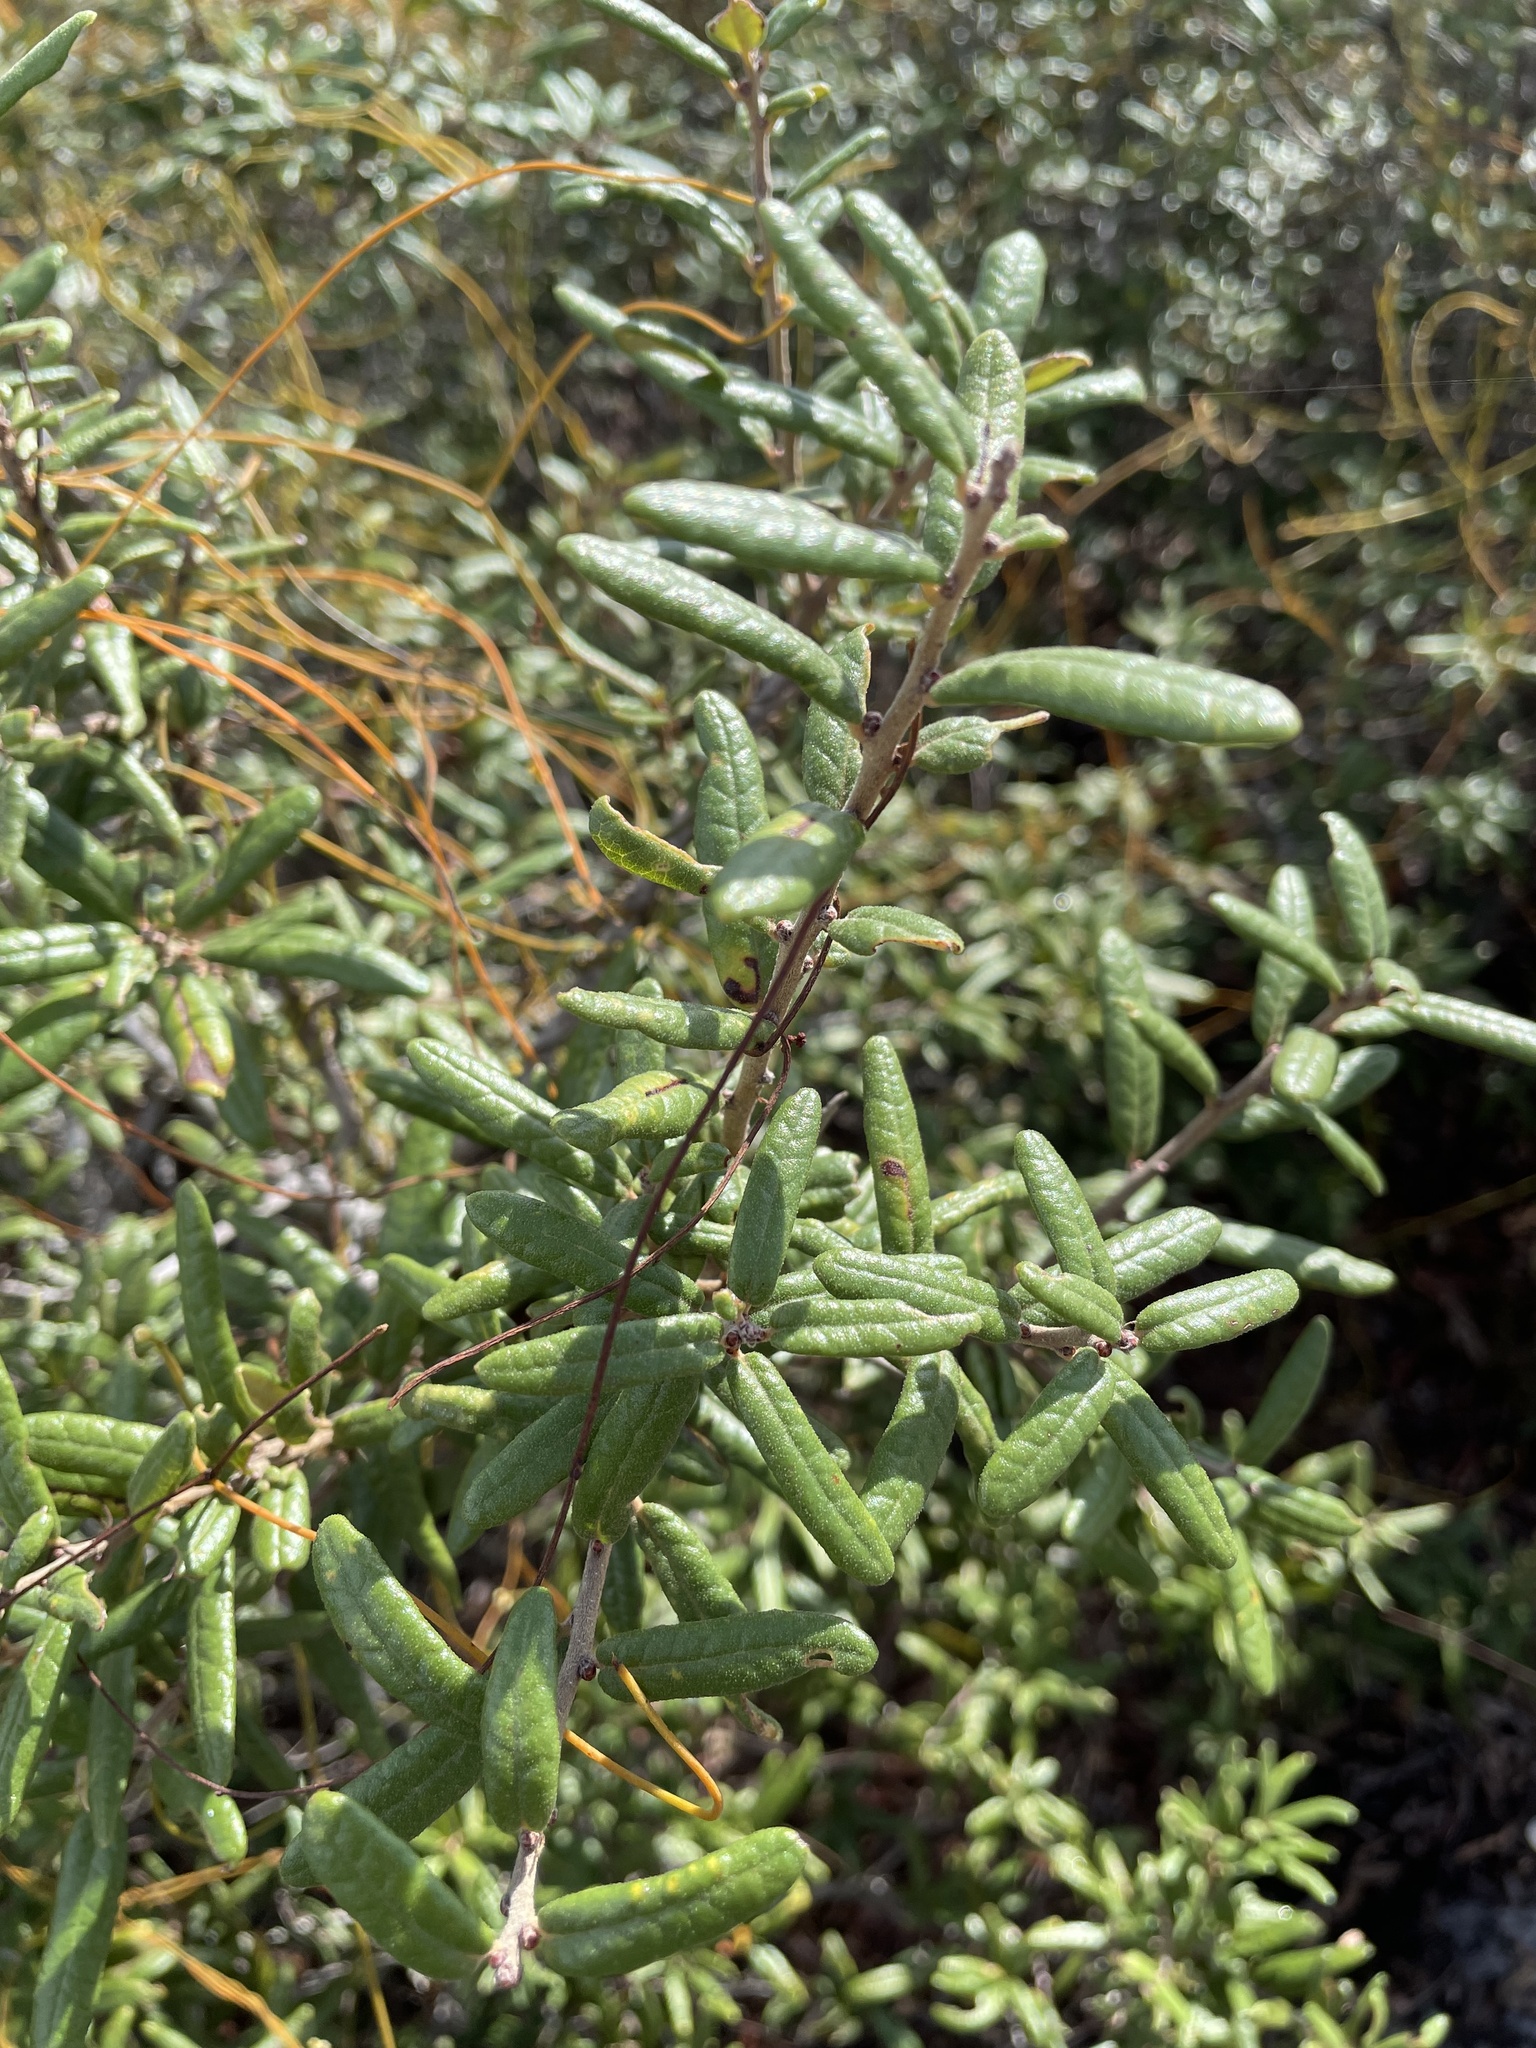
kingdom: Plantae
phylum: Tracheophyta
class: Magnoliopsida
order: Fagales
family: Fagaceae
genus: Quercus
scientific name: Quercus geminata
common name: Sand live oak
